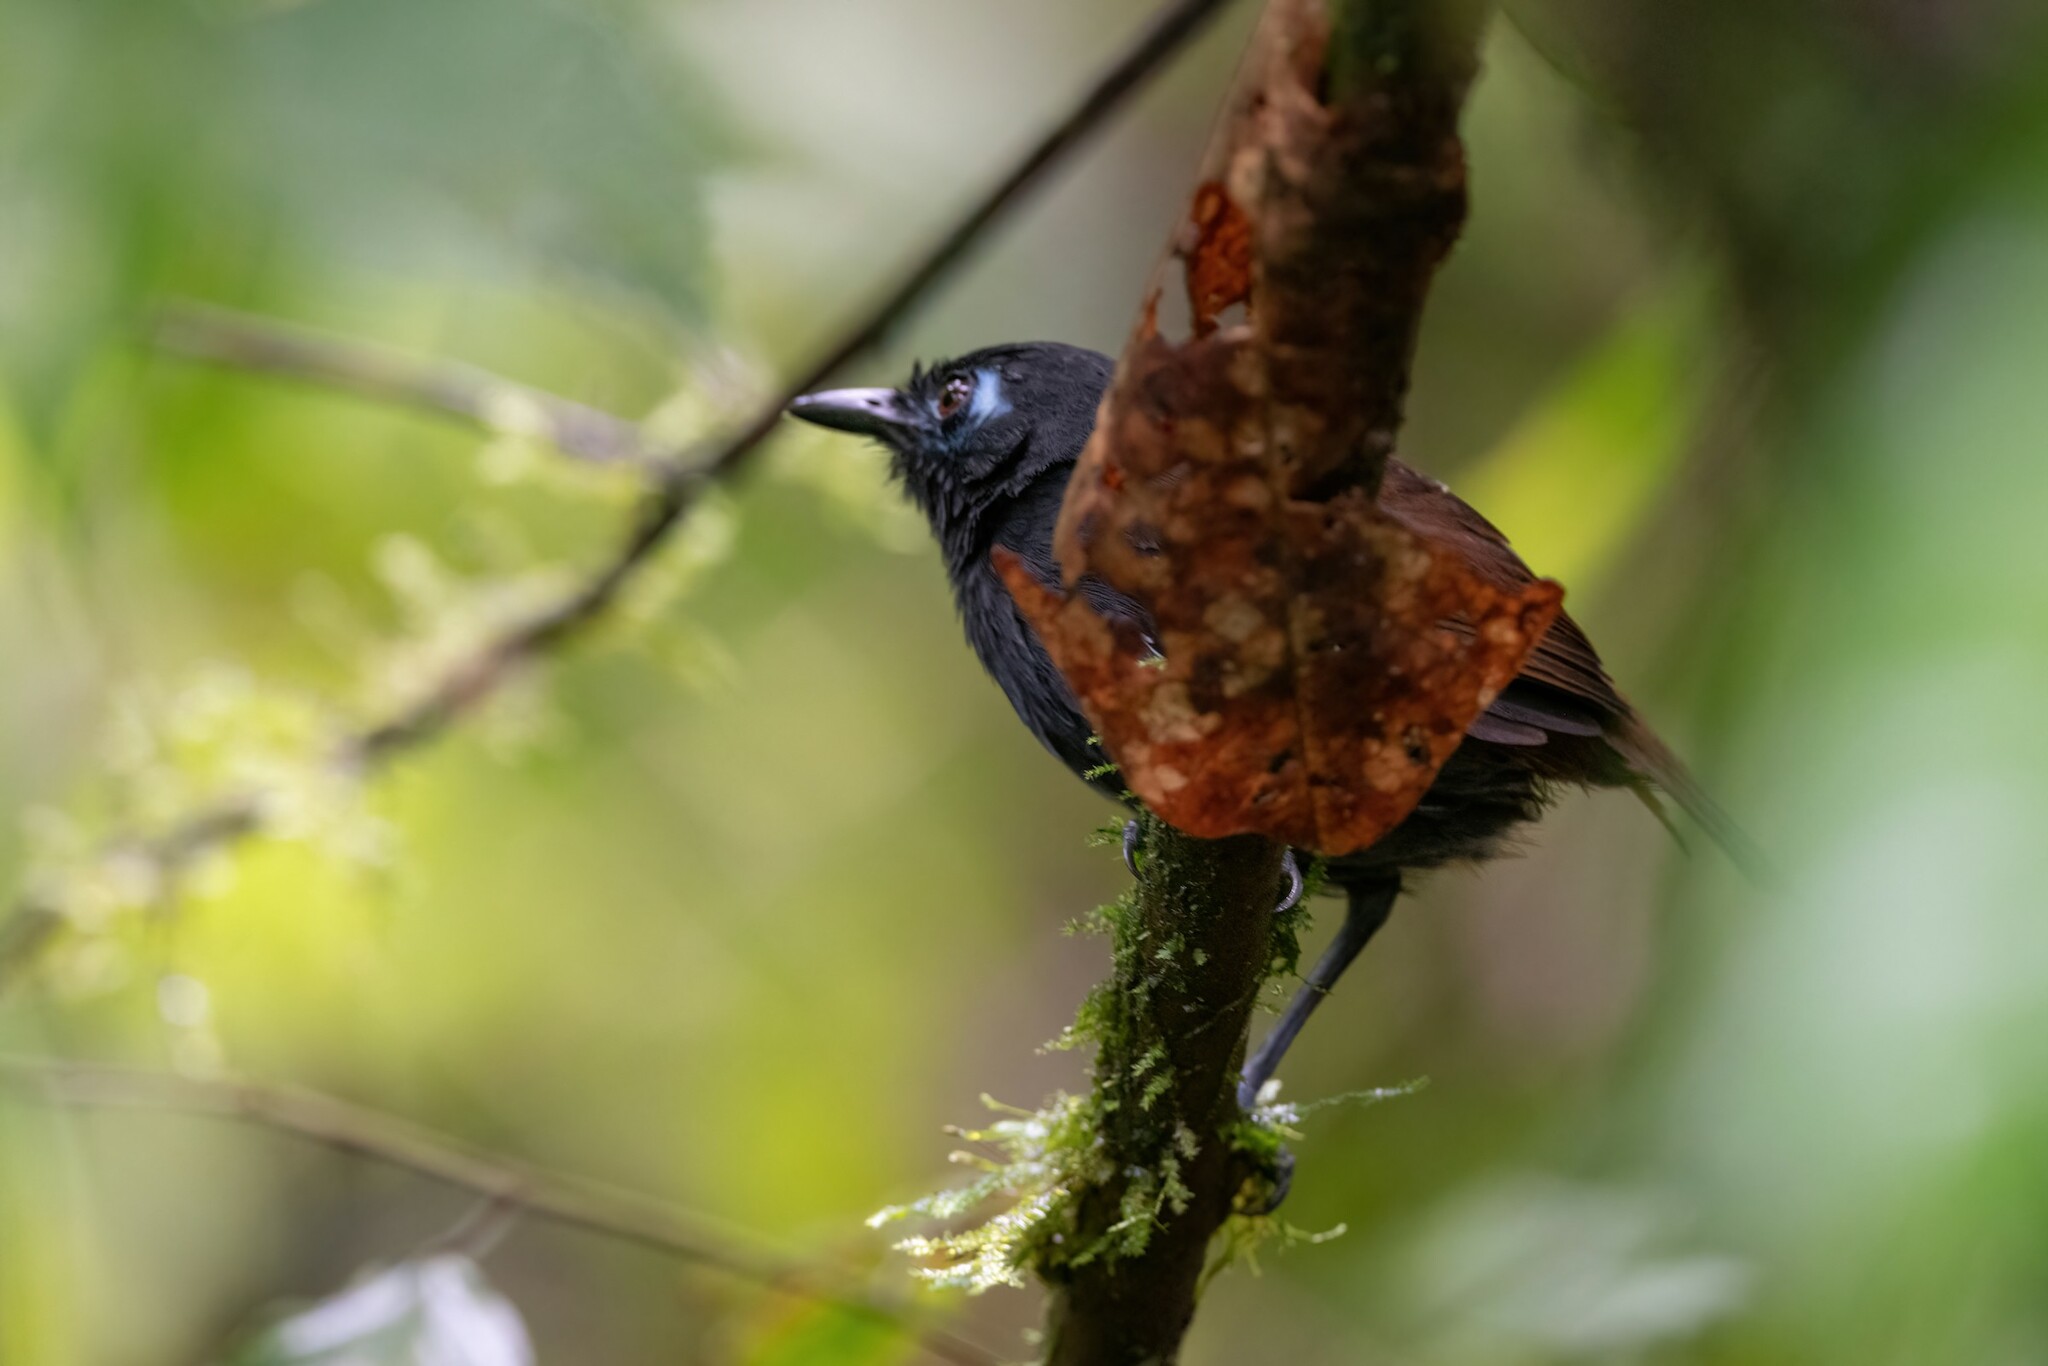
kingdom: Animalia
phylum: Chordata
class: Aves
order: Passeriformes
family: Thamnophilidae
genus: Myrmeciza
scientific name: Myrmeciza exsul
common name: Chestnut-backed antbird
